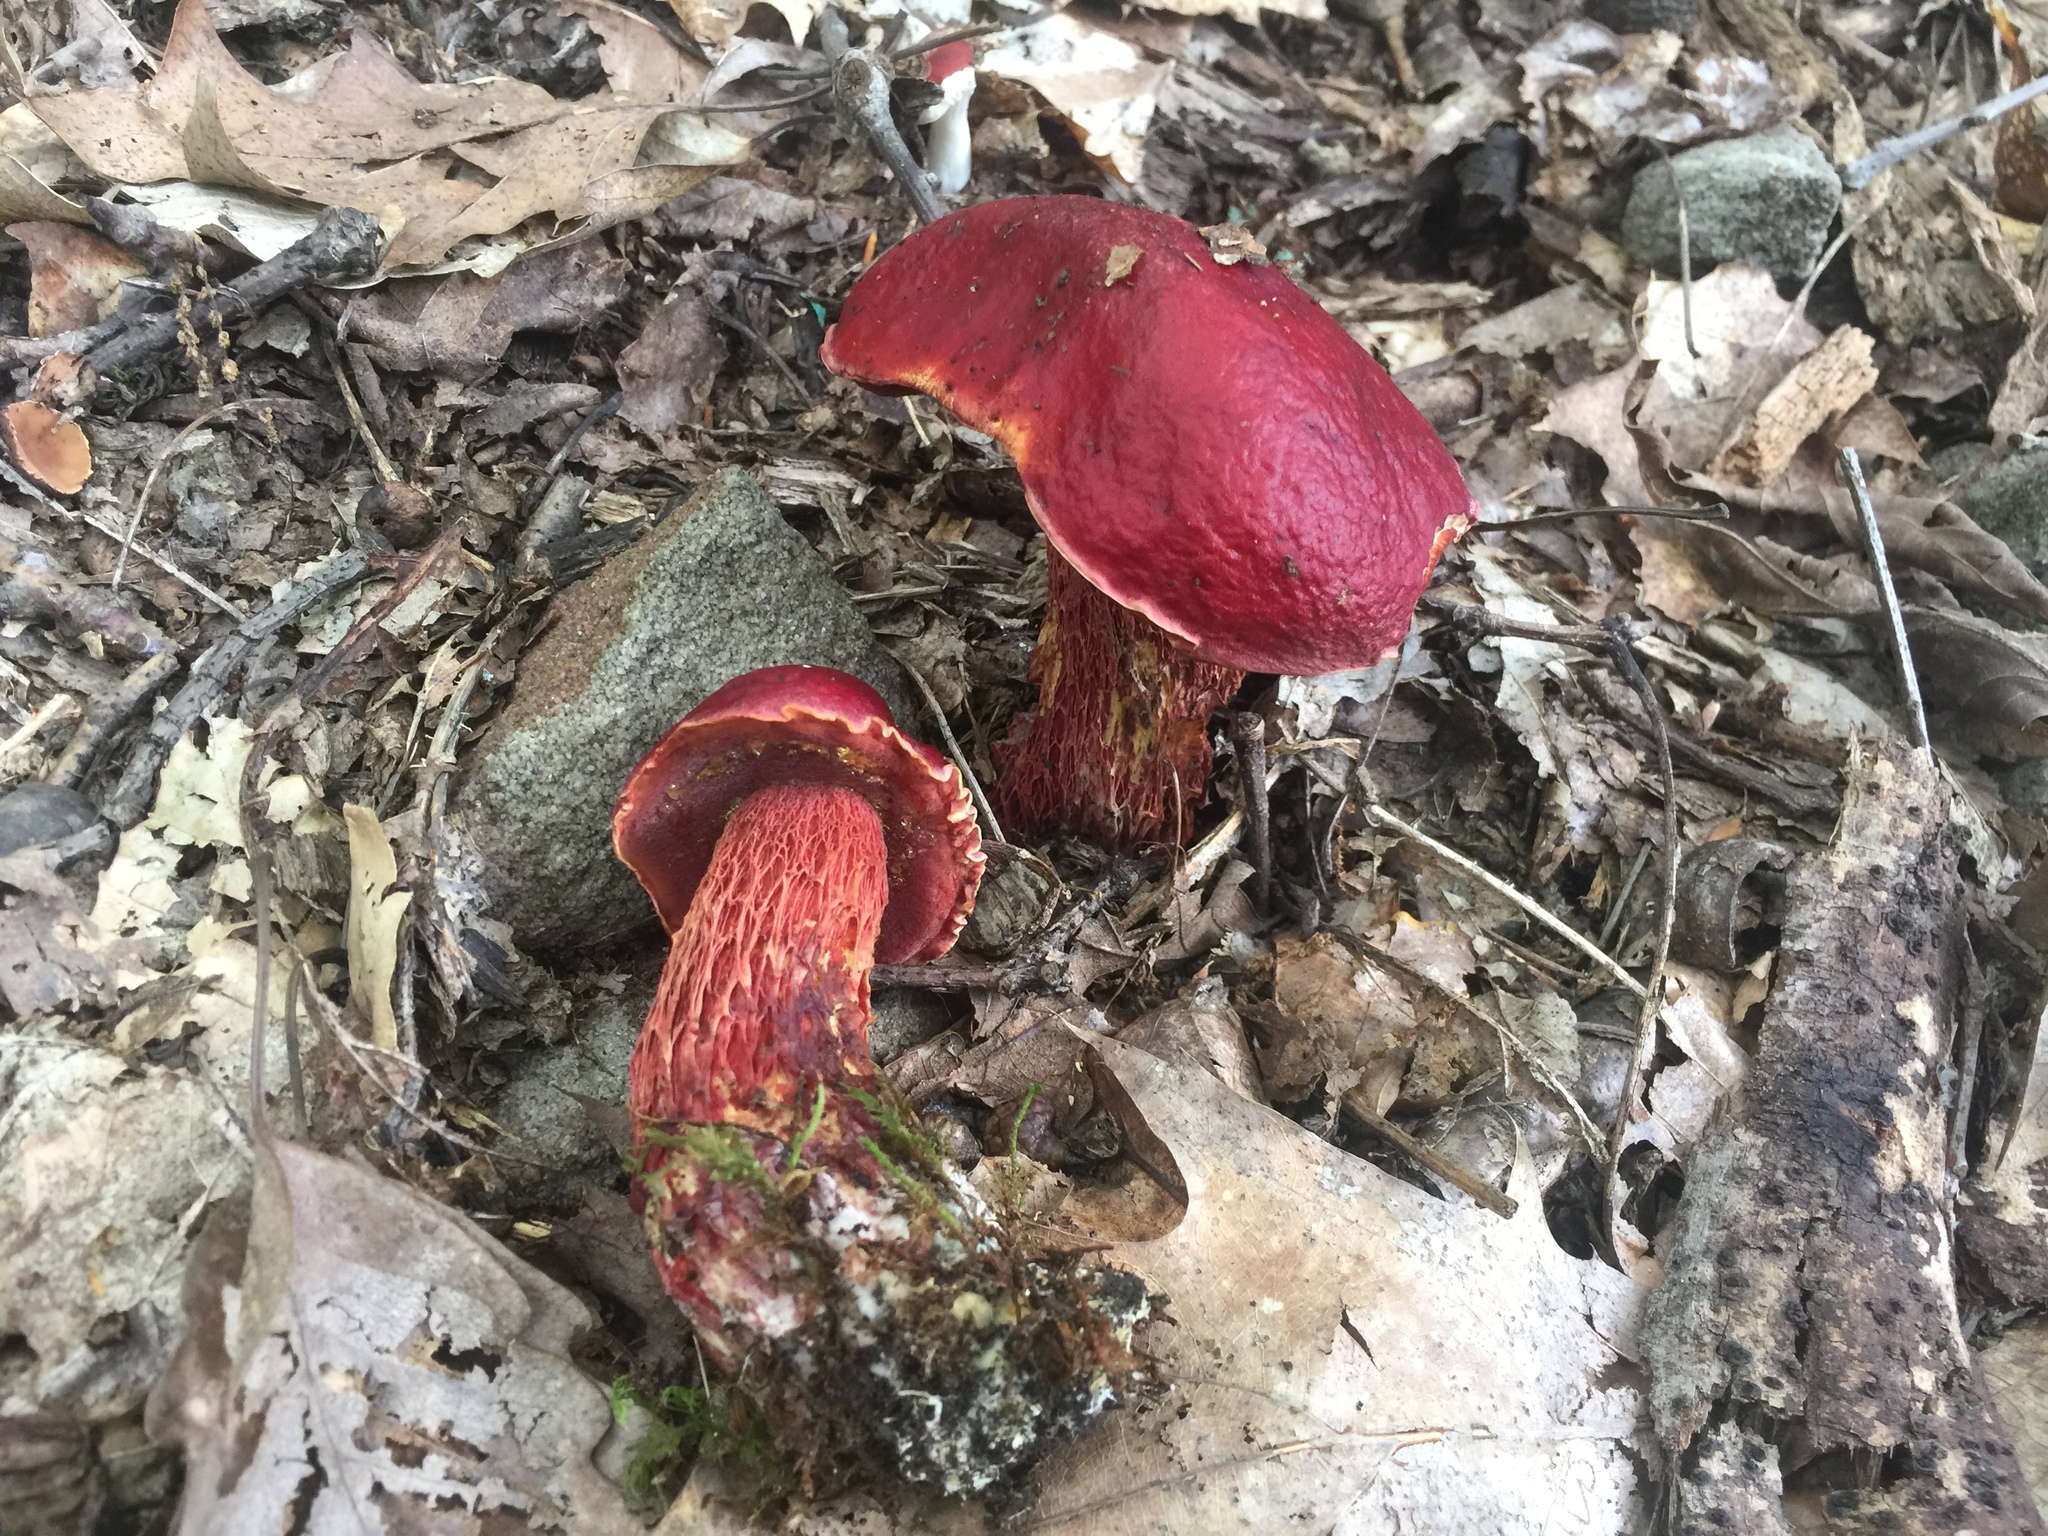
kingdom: Fungi
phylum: Basidiomycota
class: Agaricomycetes
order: Boletales
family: Boletaceae
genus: Butyriboletus
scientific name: Butyriboletus frostii
